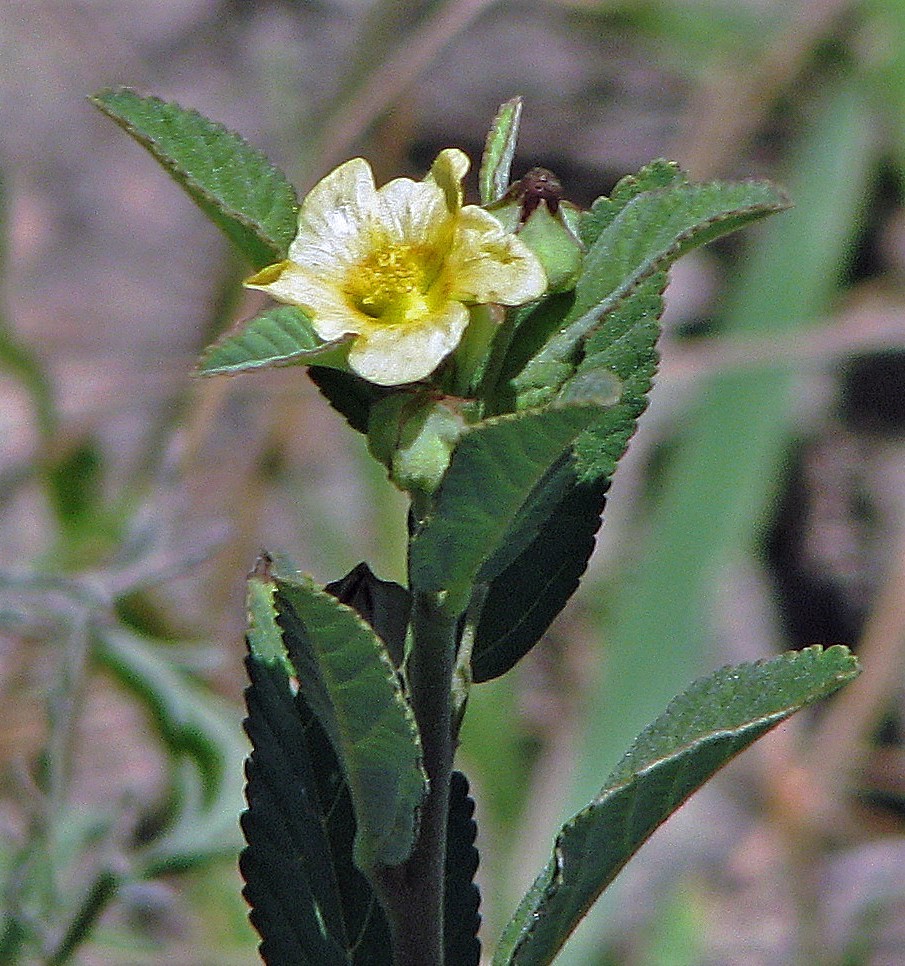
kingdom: Plantae
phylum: Tracheophyta
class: Magnoliopsida
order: Malvales
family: Malvaceae
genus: Sida
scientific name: Sida rhombifolia
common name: Queensland-hemp
